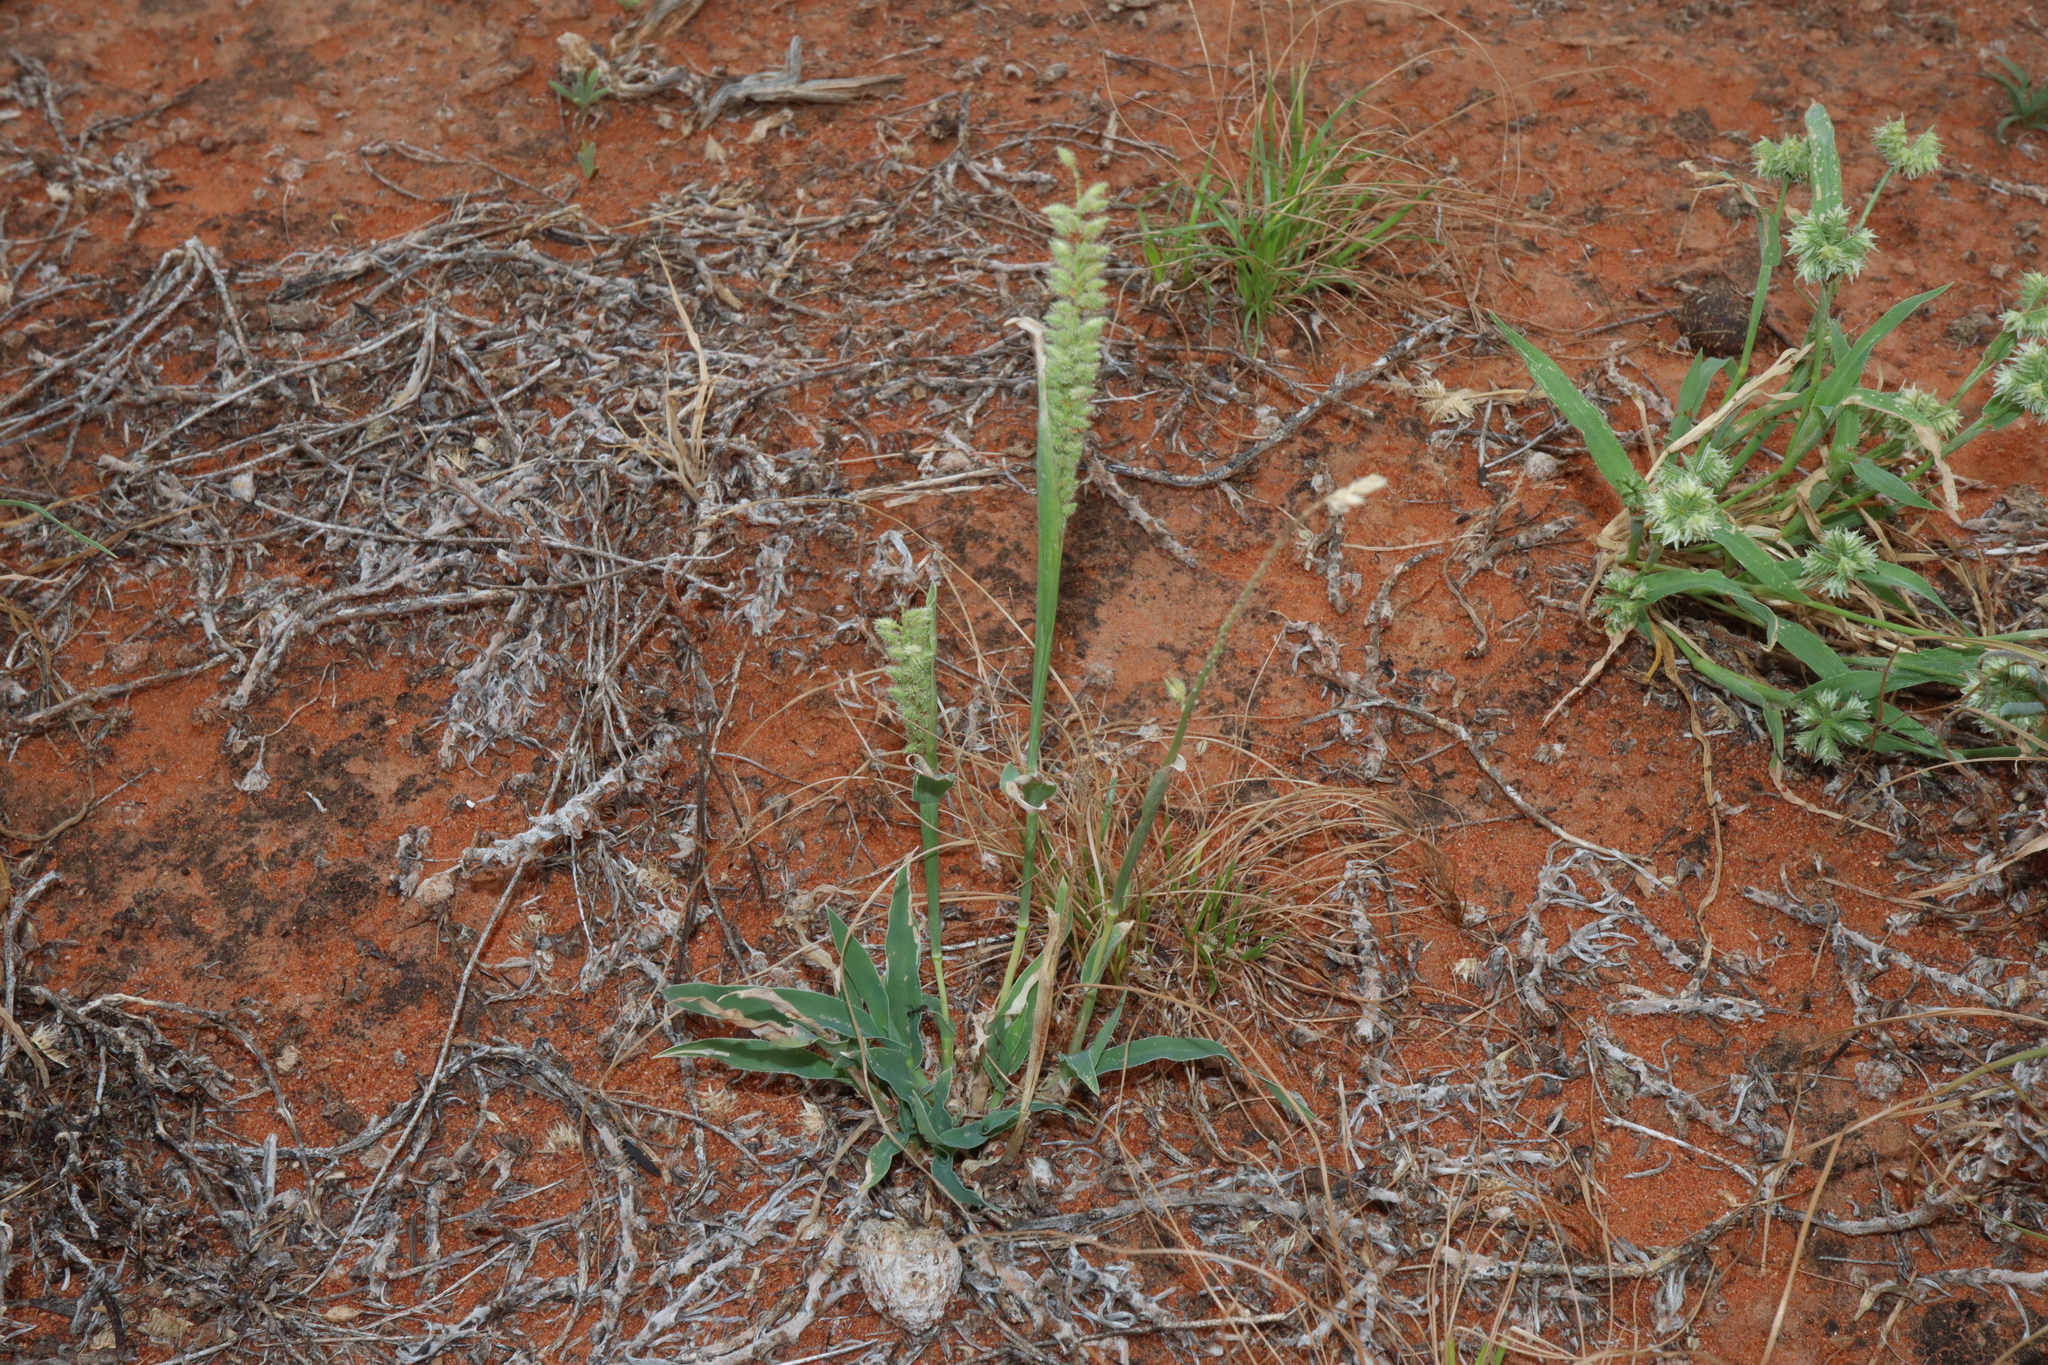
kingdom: Plantae
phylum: Tracheophyta
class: Liliopsida
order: Poales
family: Poaceae
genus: Tragus
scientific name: Tragus australianus
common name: Australian bur-grass
